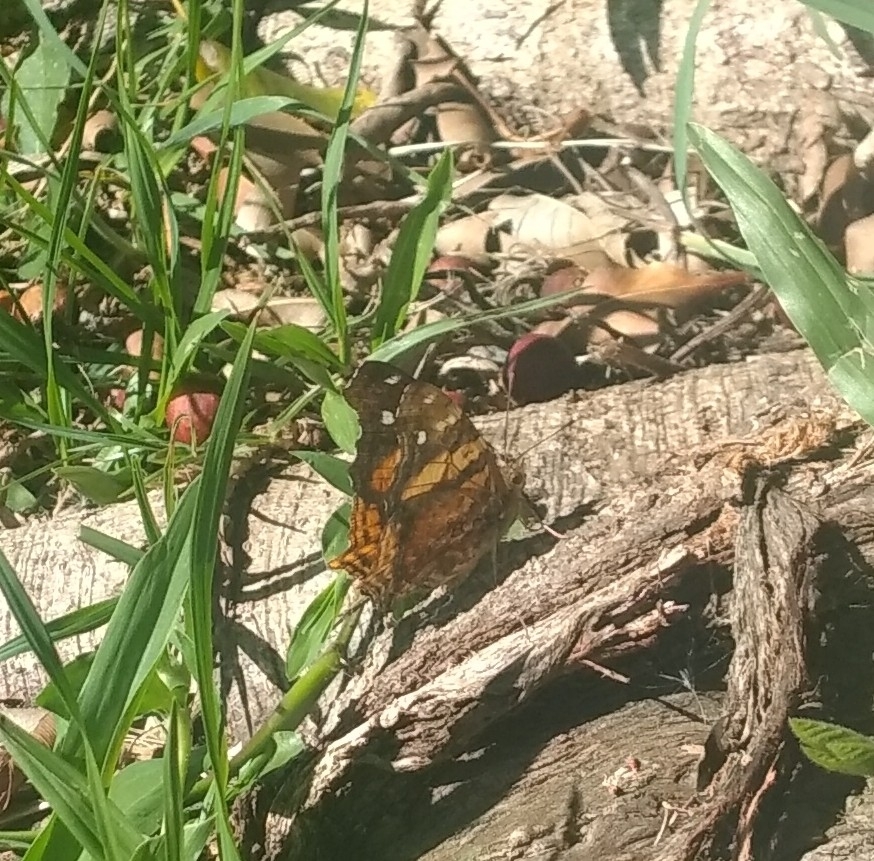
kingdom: Animalia
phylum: Arthropoda
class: Insecta
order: Lepidoptera
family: Nymphalidae
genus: Hypanartia
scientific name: Hypanartia bella
